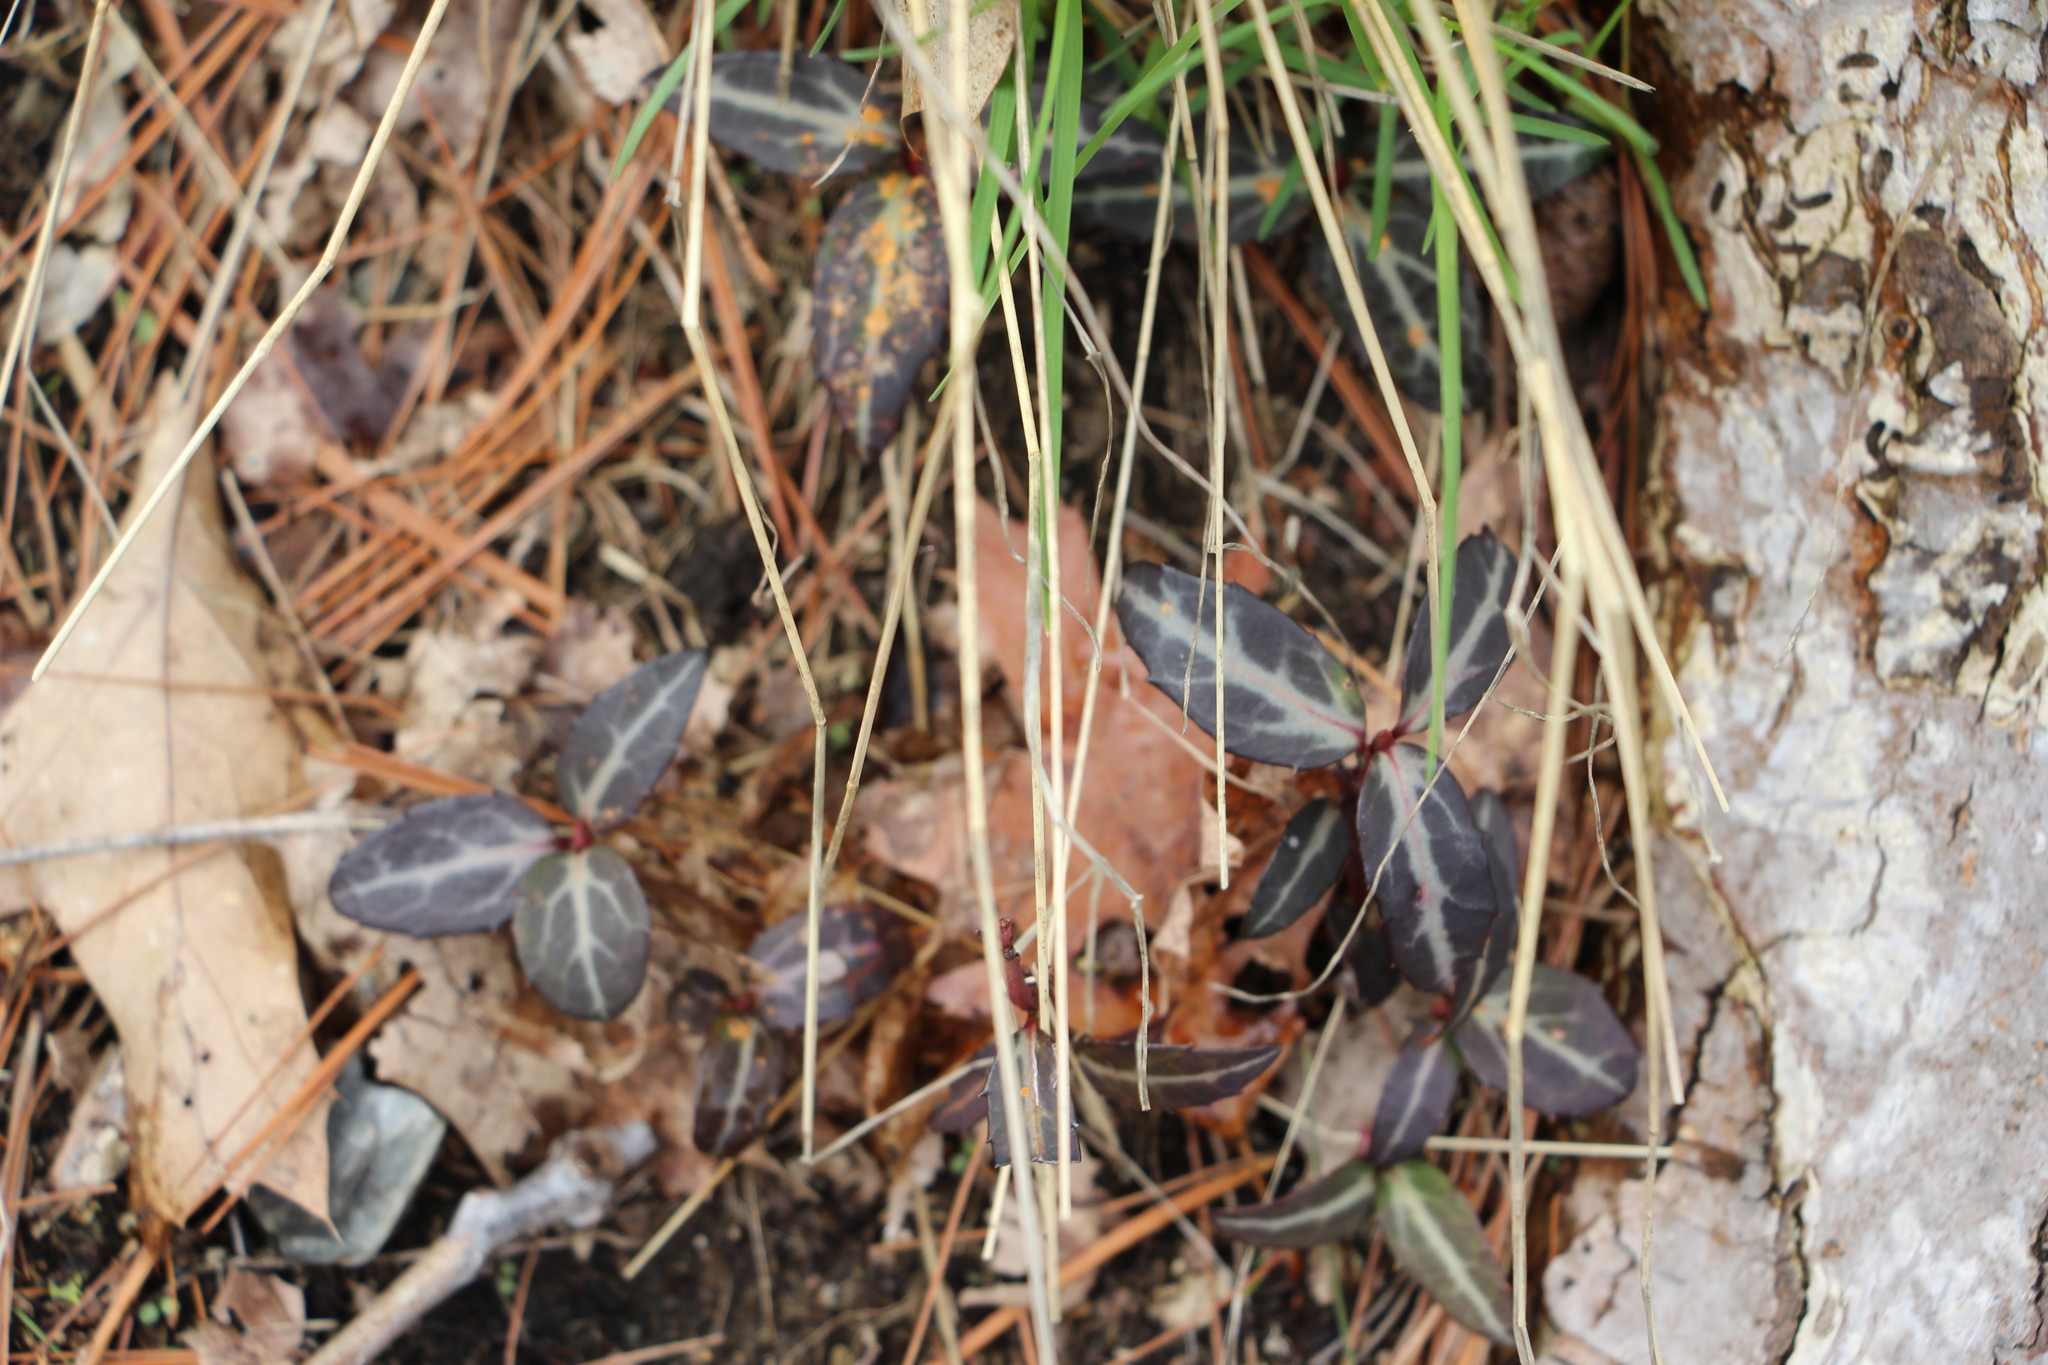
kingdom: Plantae
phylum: Tracheophyta
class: Magnoliopsida
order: Ericales
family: Ericaceae
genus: Chimaphila
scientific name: Chimaphila maculata
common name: Spotted pipsissewa
